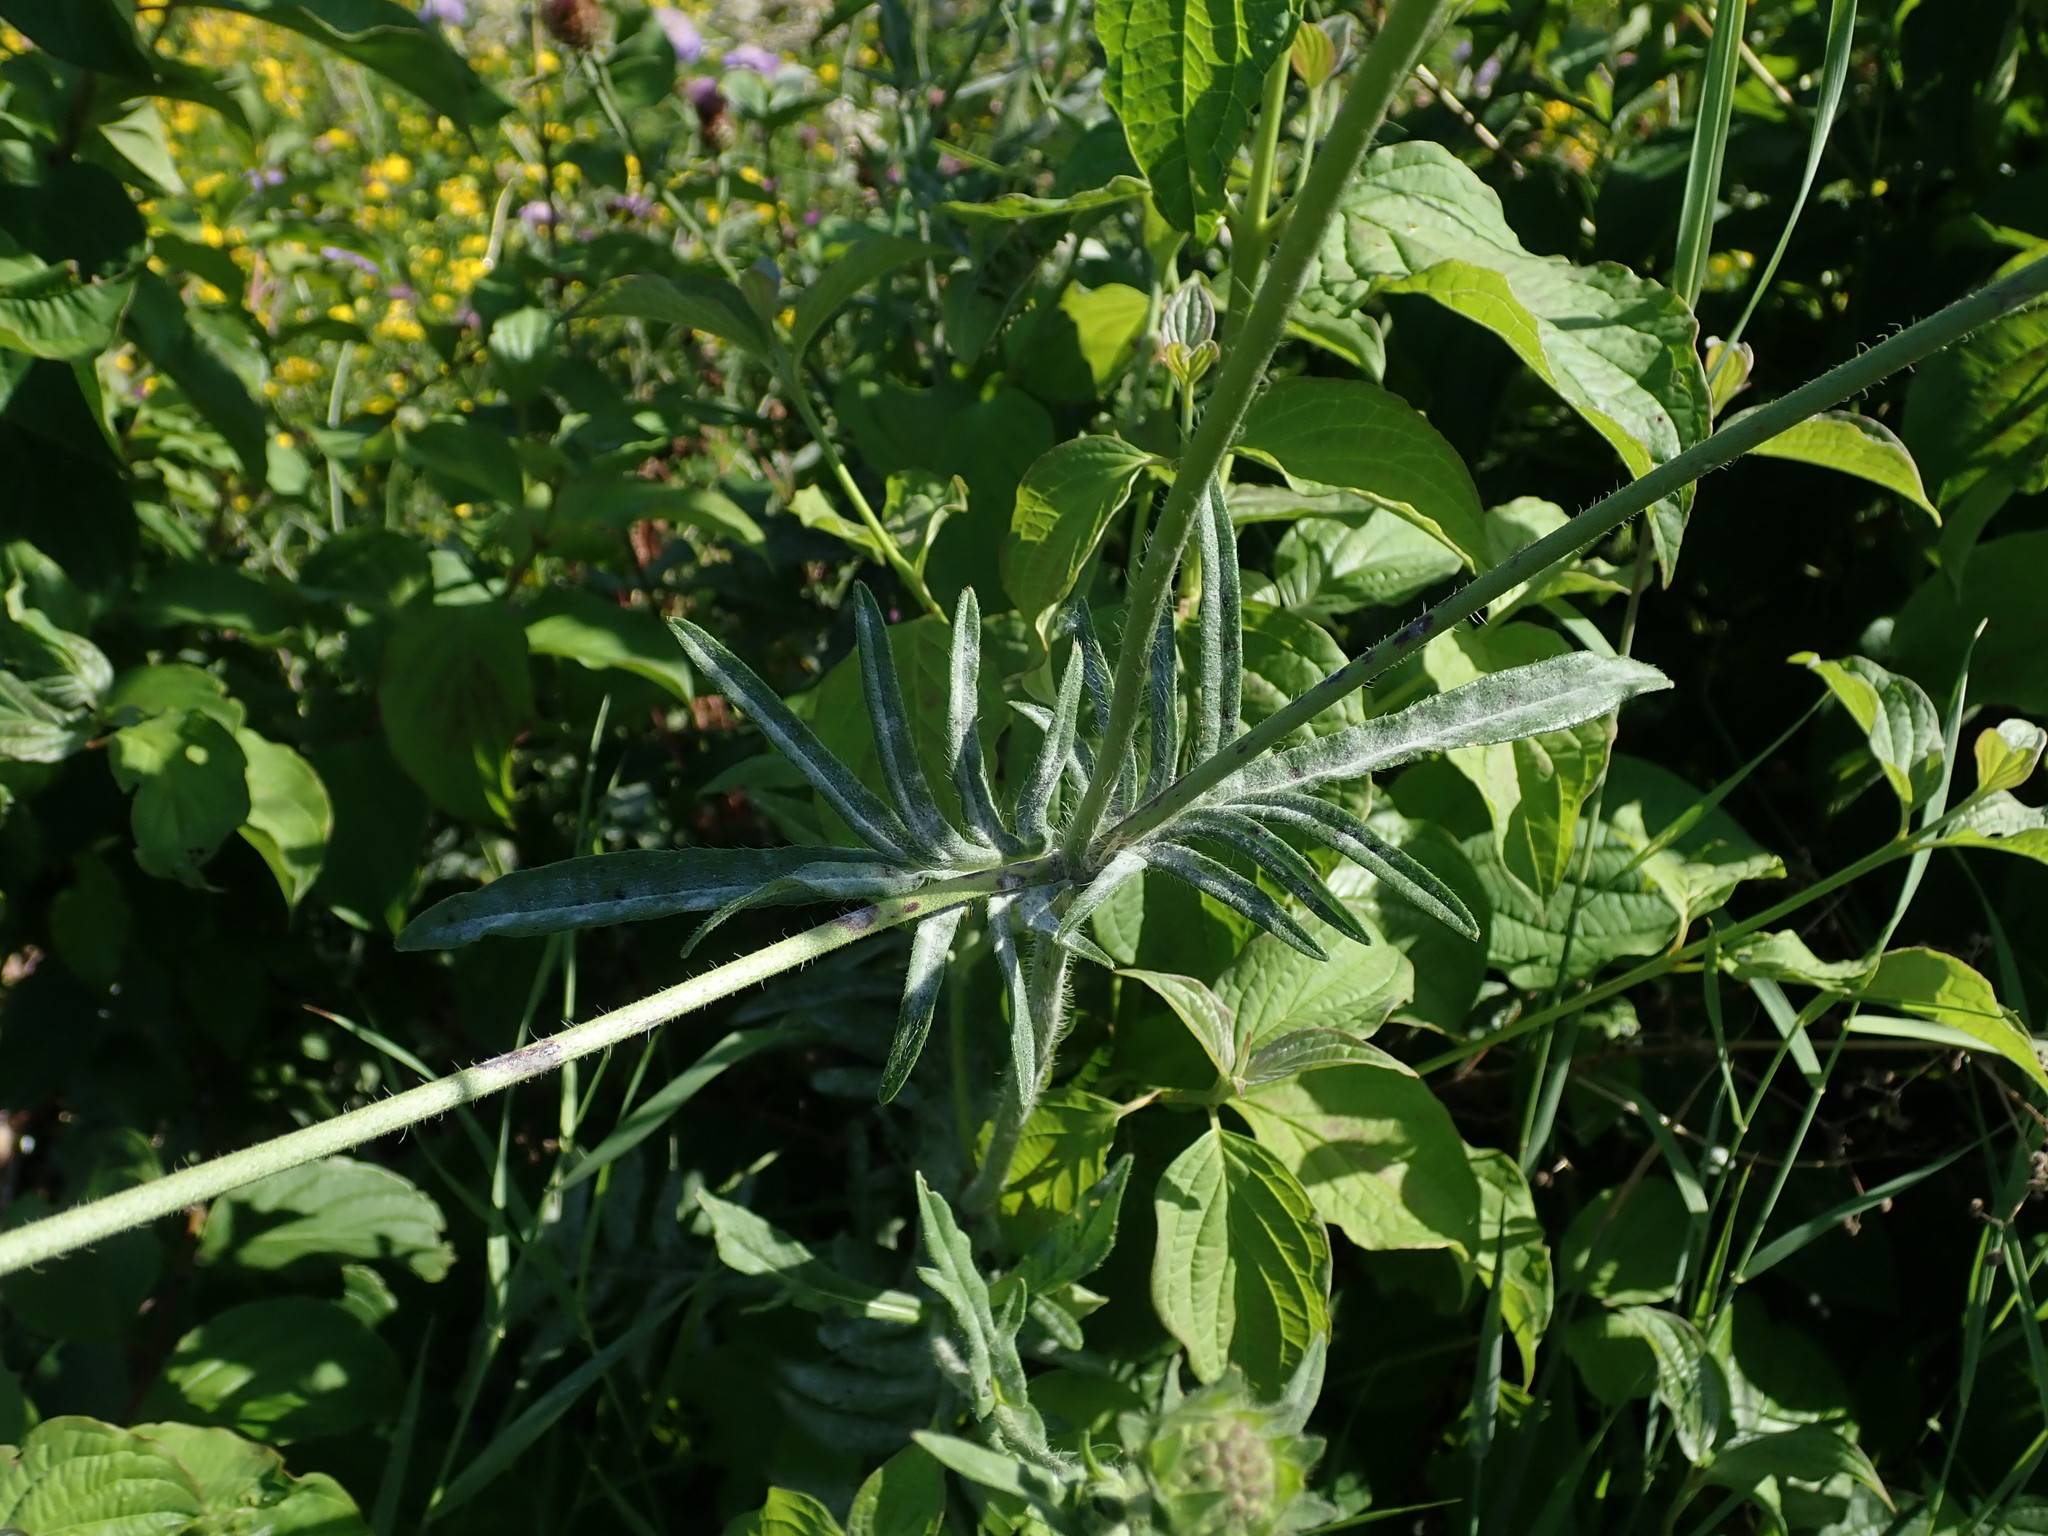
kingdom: Plantae
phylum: Tracheophyta
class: Magnoliopsida
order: Dipsacales
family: Caprifoliaceae
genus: Knautia
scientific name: Knautia arvensis
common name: Field scabiosa
